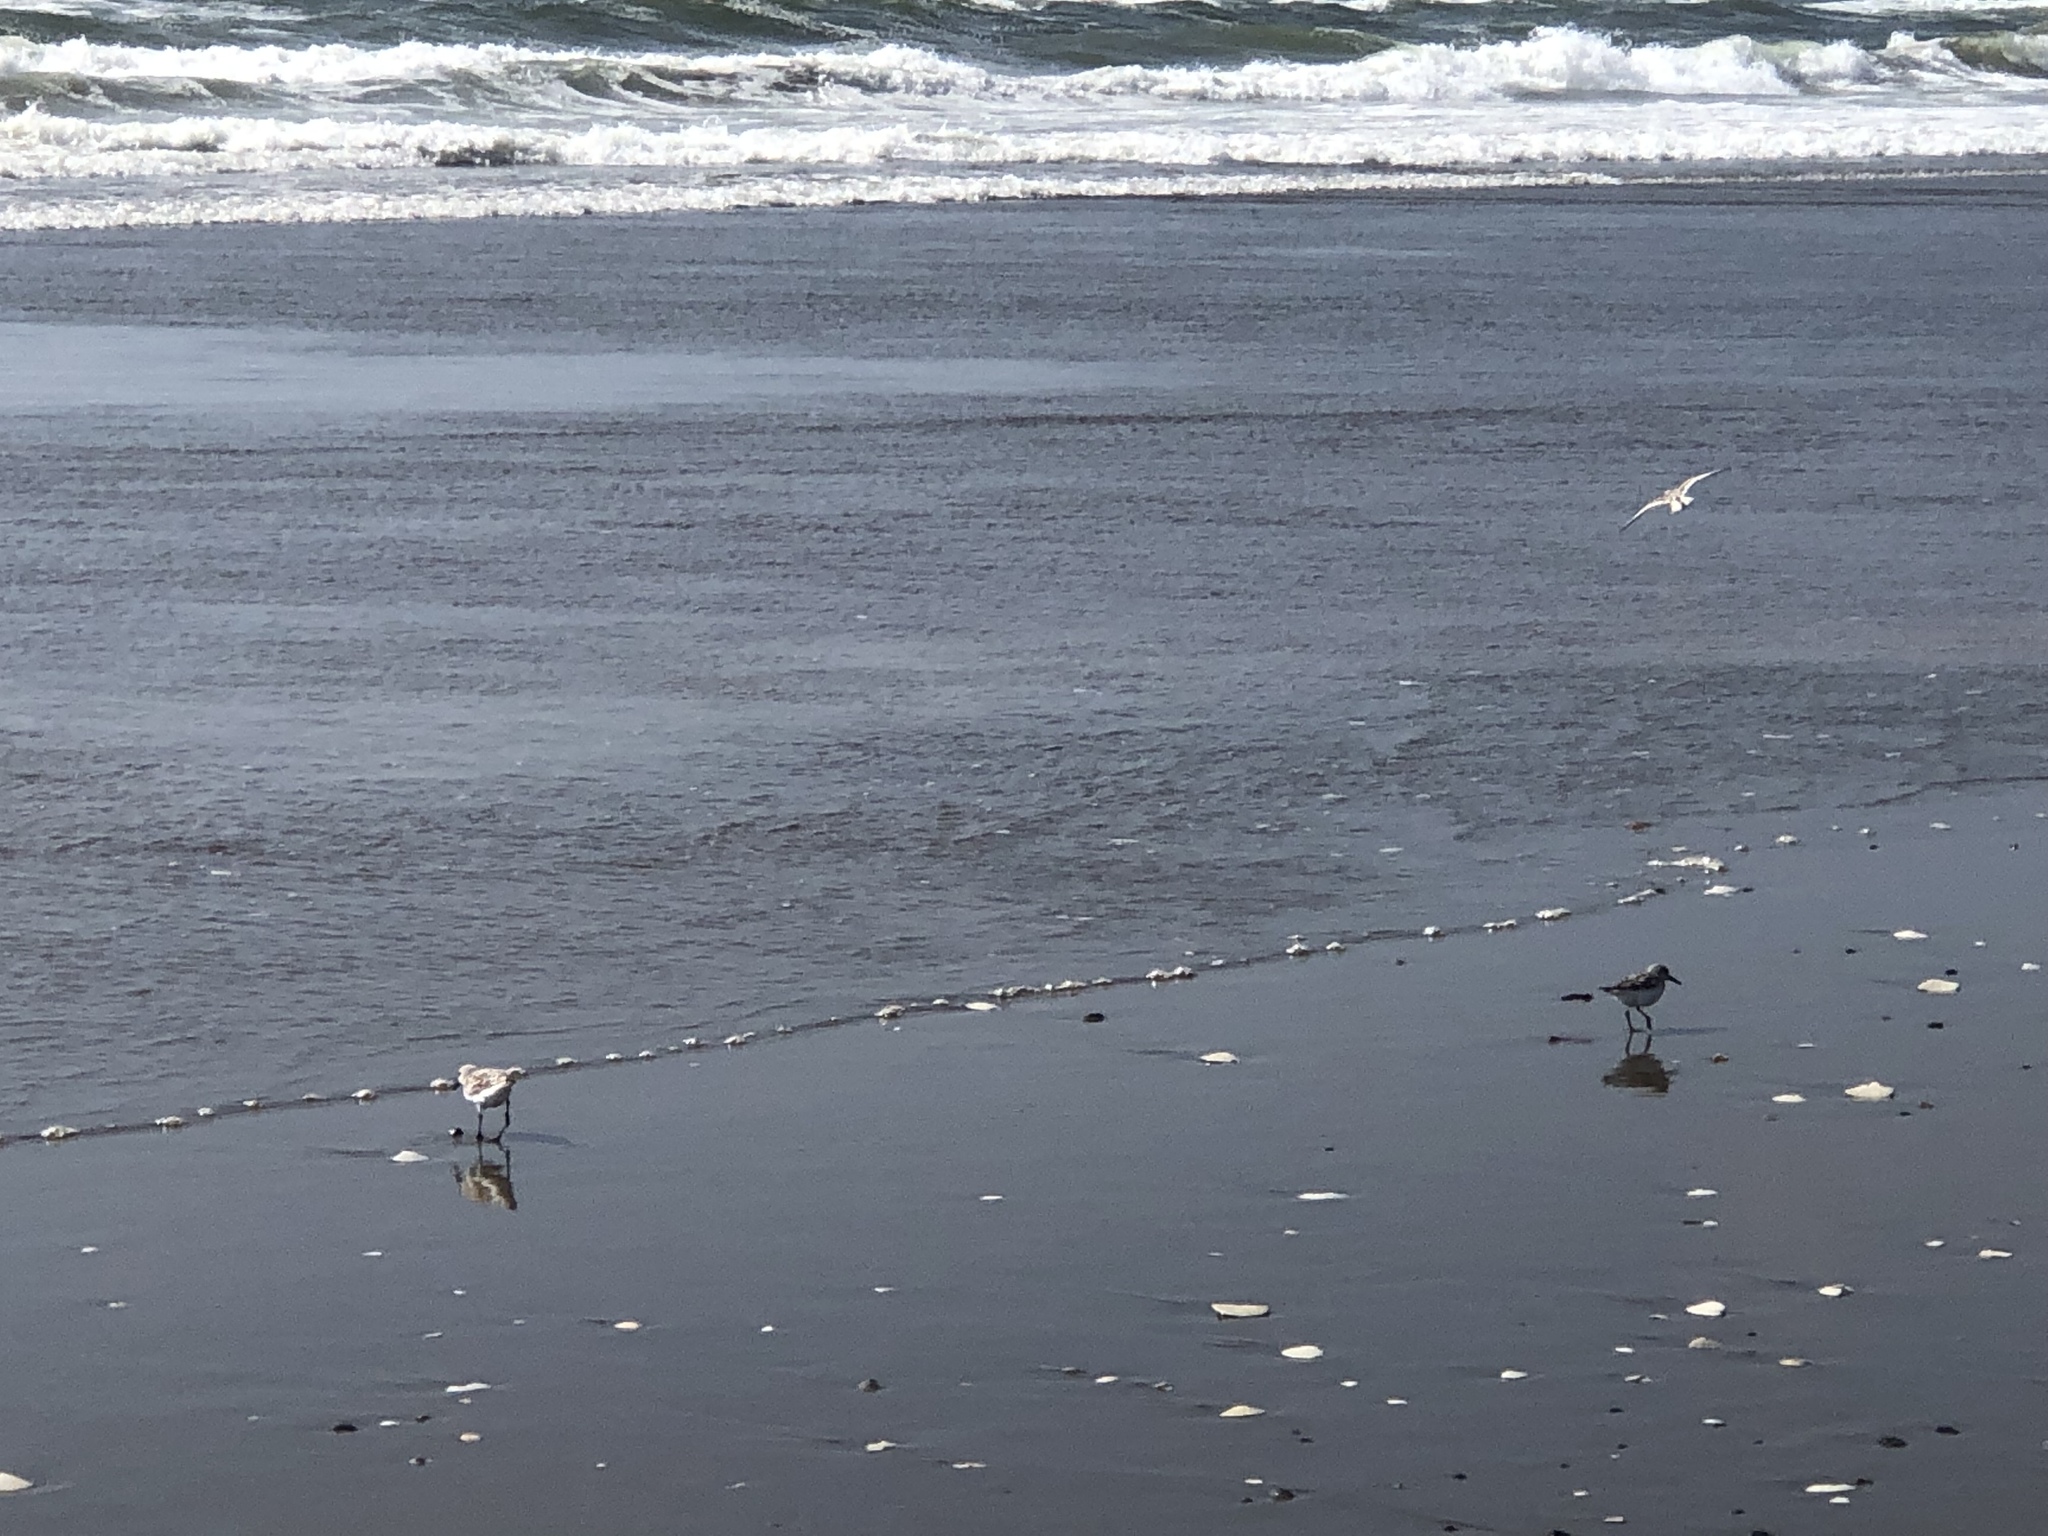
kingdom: Animalia
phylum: Chordata
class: Aves
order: Charadriiformes
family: Scolopacidae
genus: Calidris
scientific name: Calidris alba
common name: Sanderling
